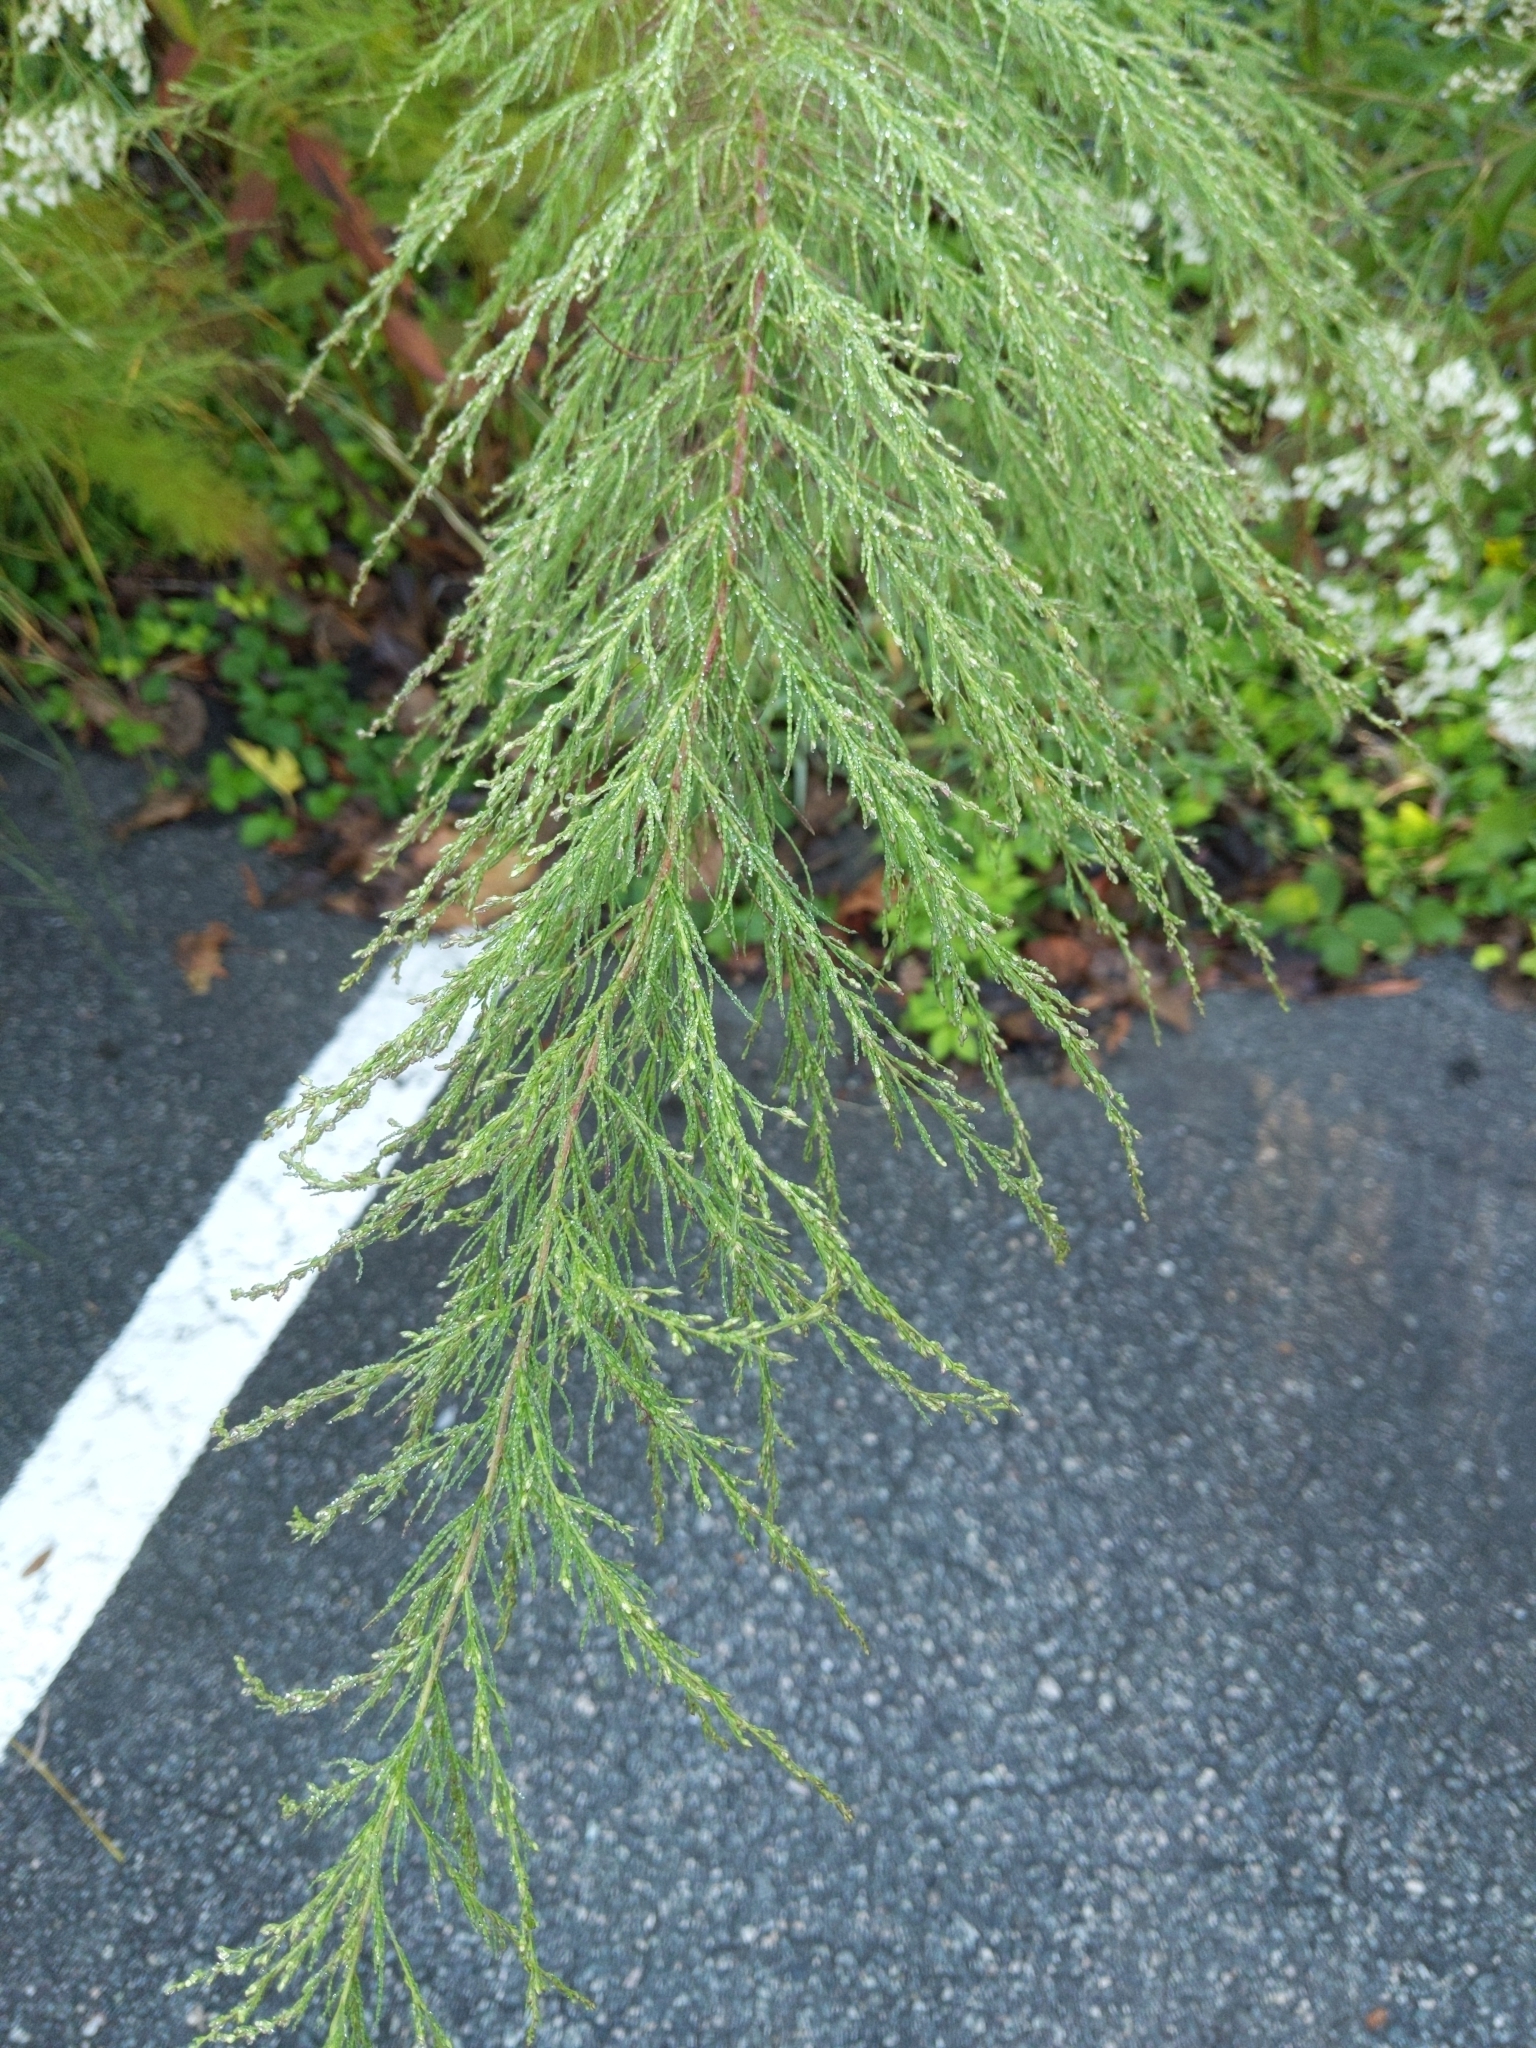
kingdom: Plantae
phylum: Tracheophyta
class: Magnoliopsida
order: Asterales
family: Asteraceae
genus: Eupatorium
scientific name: Eupatorium capillifolium
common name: Dog-fennel
